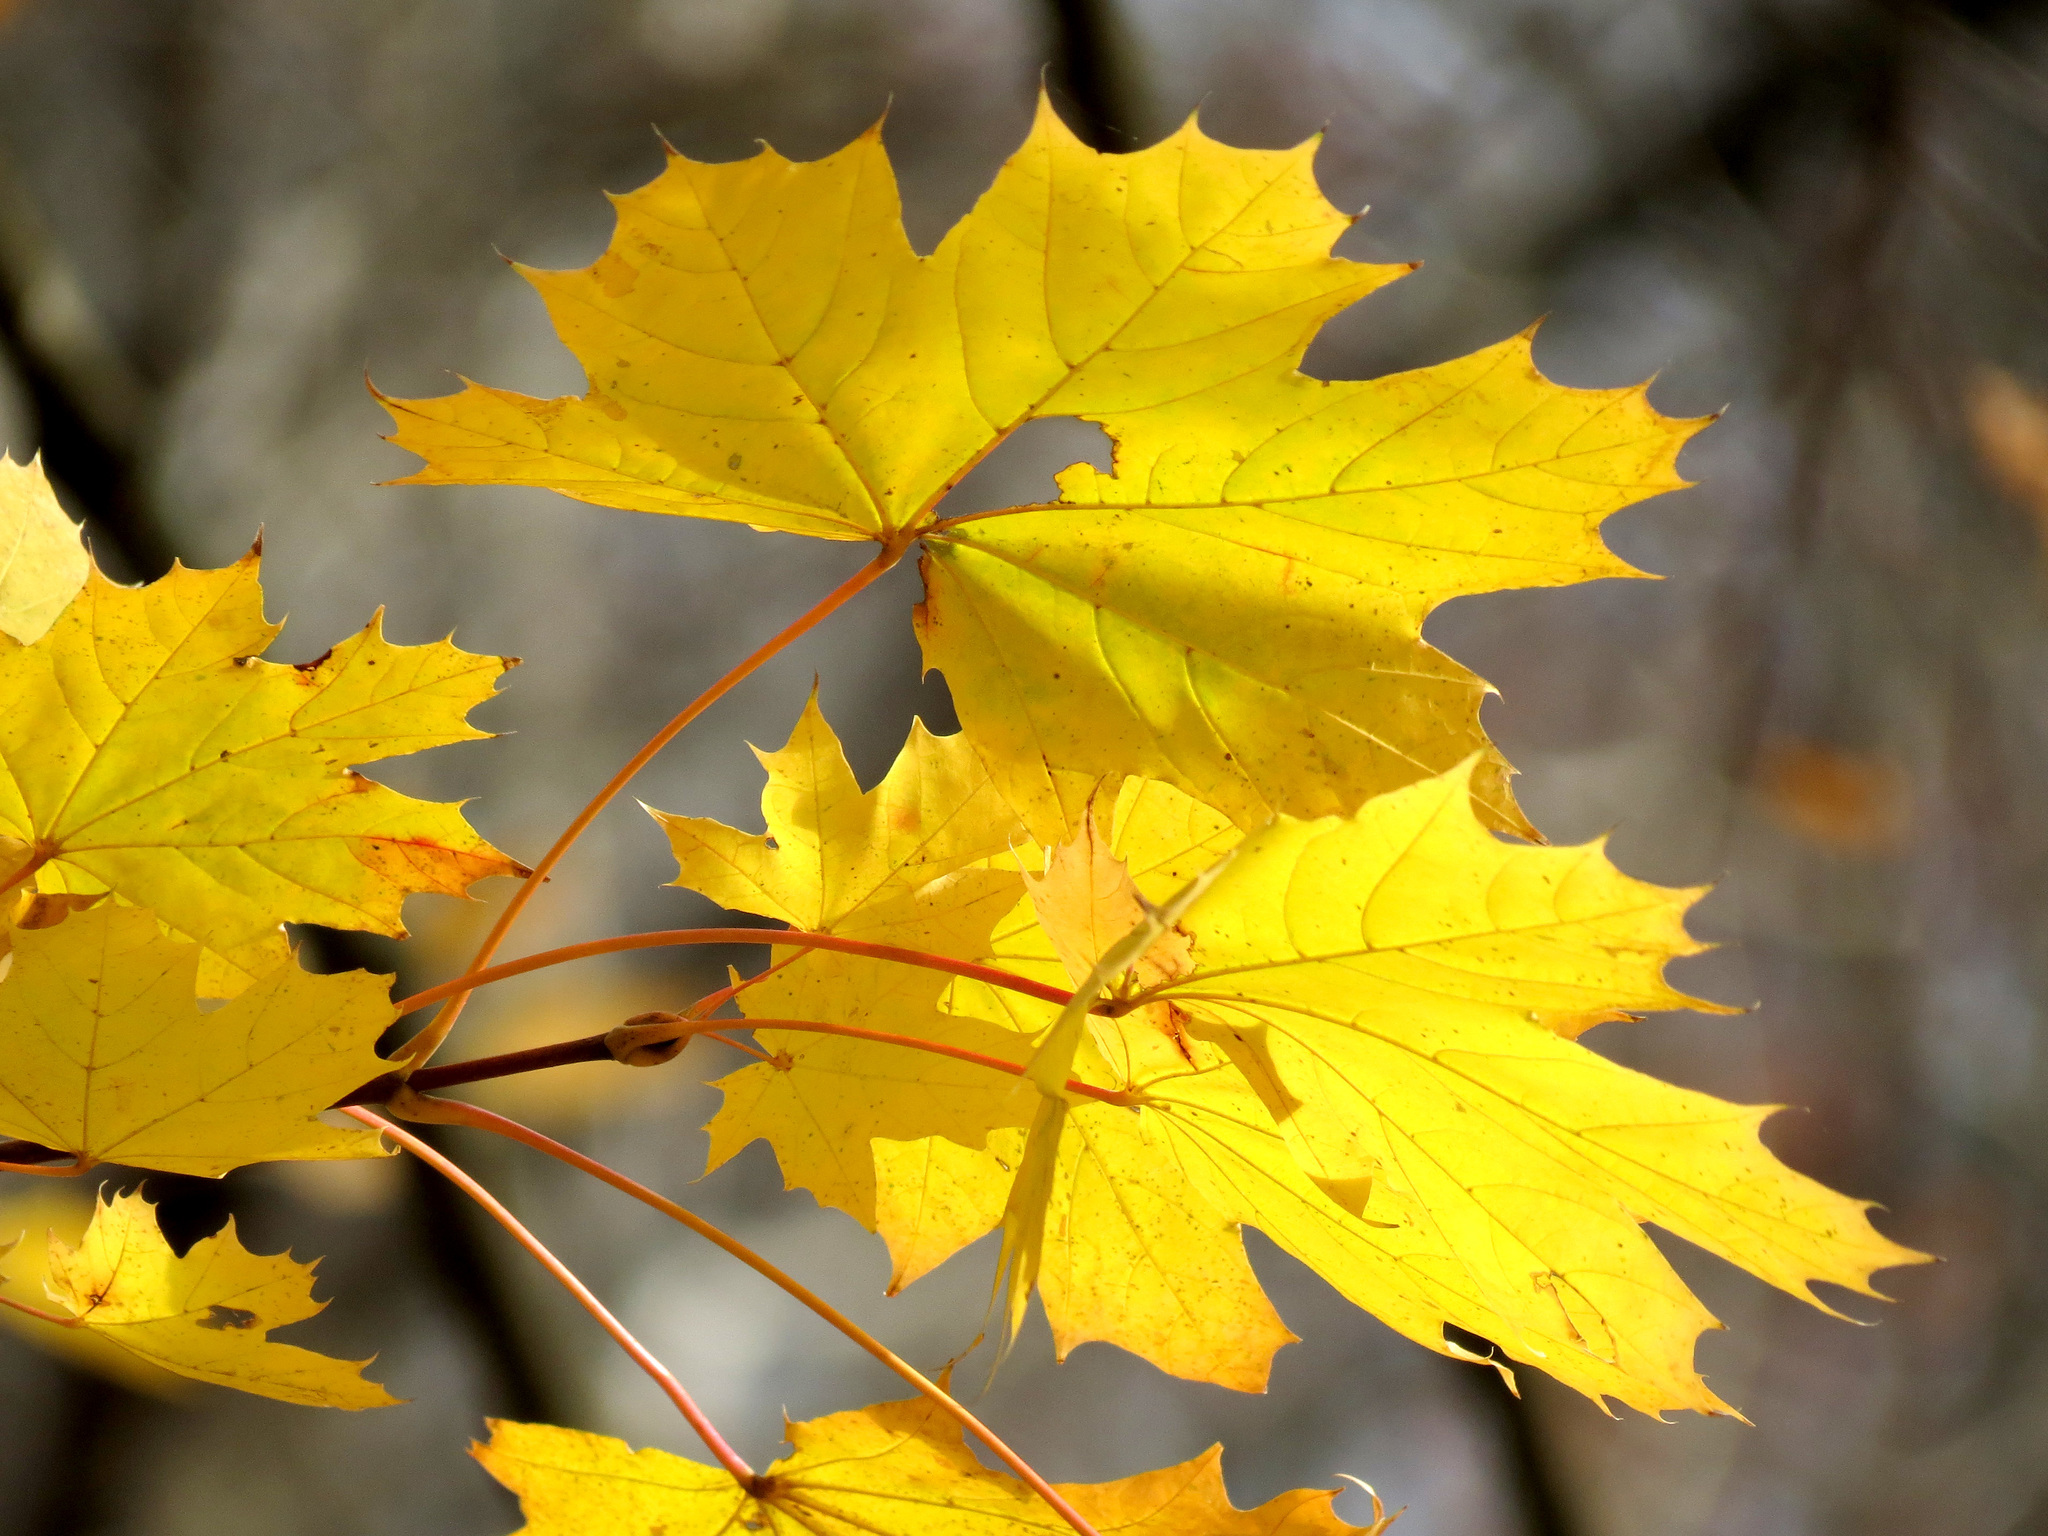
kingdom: Plantae
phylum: Tracheophyta
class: Magnoliopsida
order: Sapindales
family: Sapindaceae
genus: Acer
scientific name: Acer platanoides
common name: Norway maple
